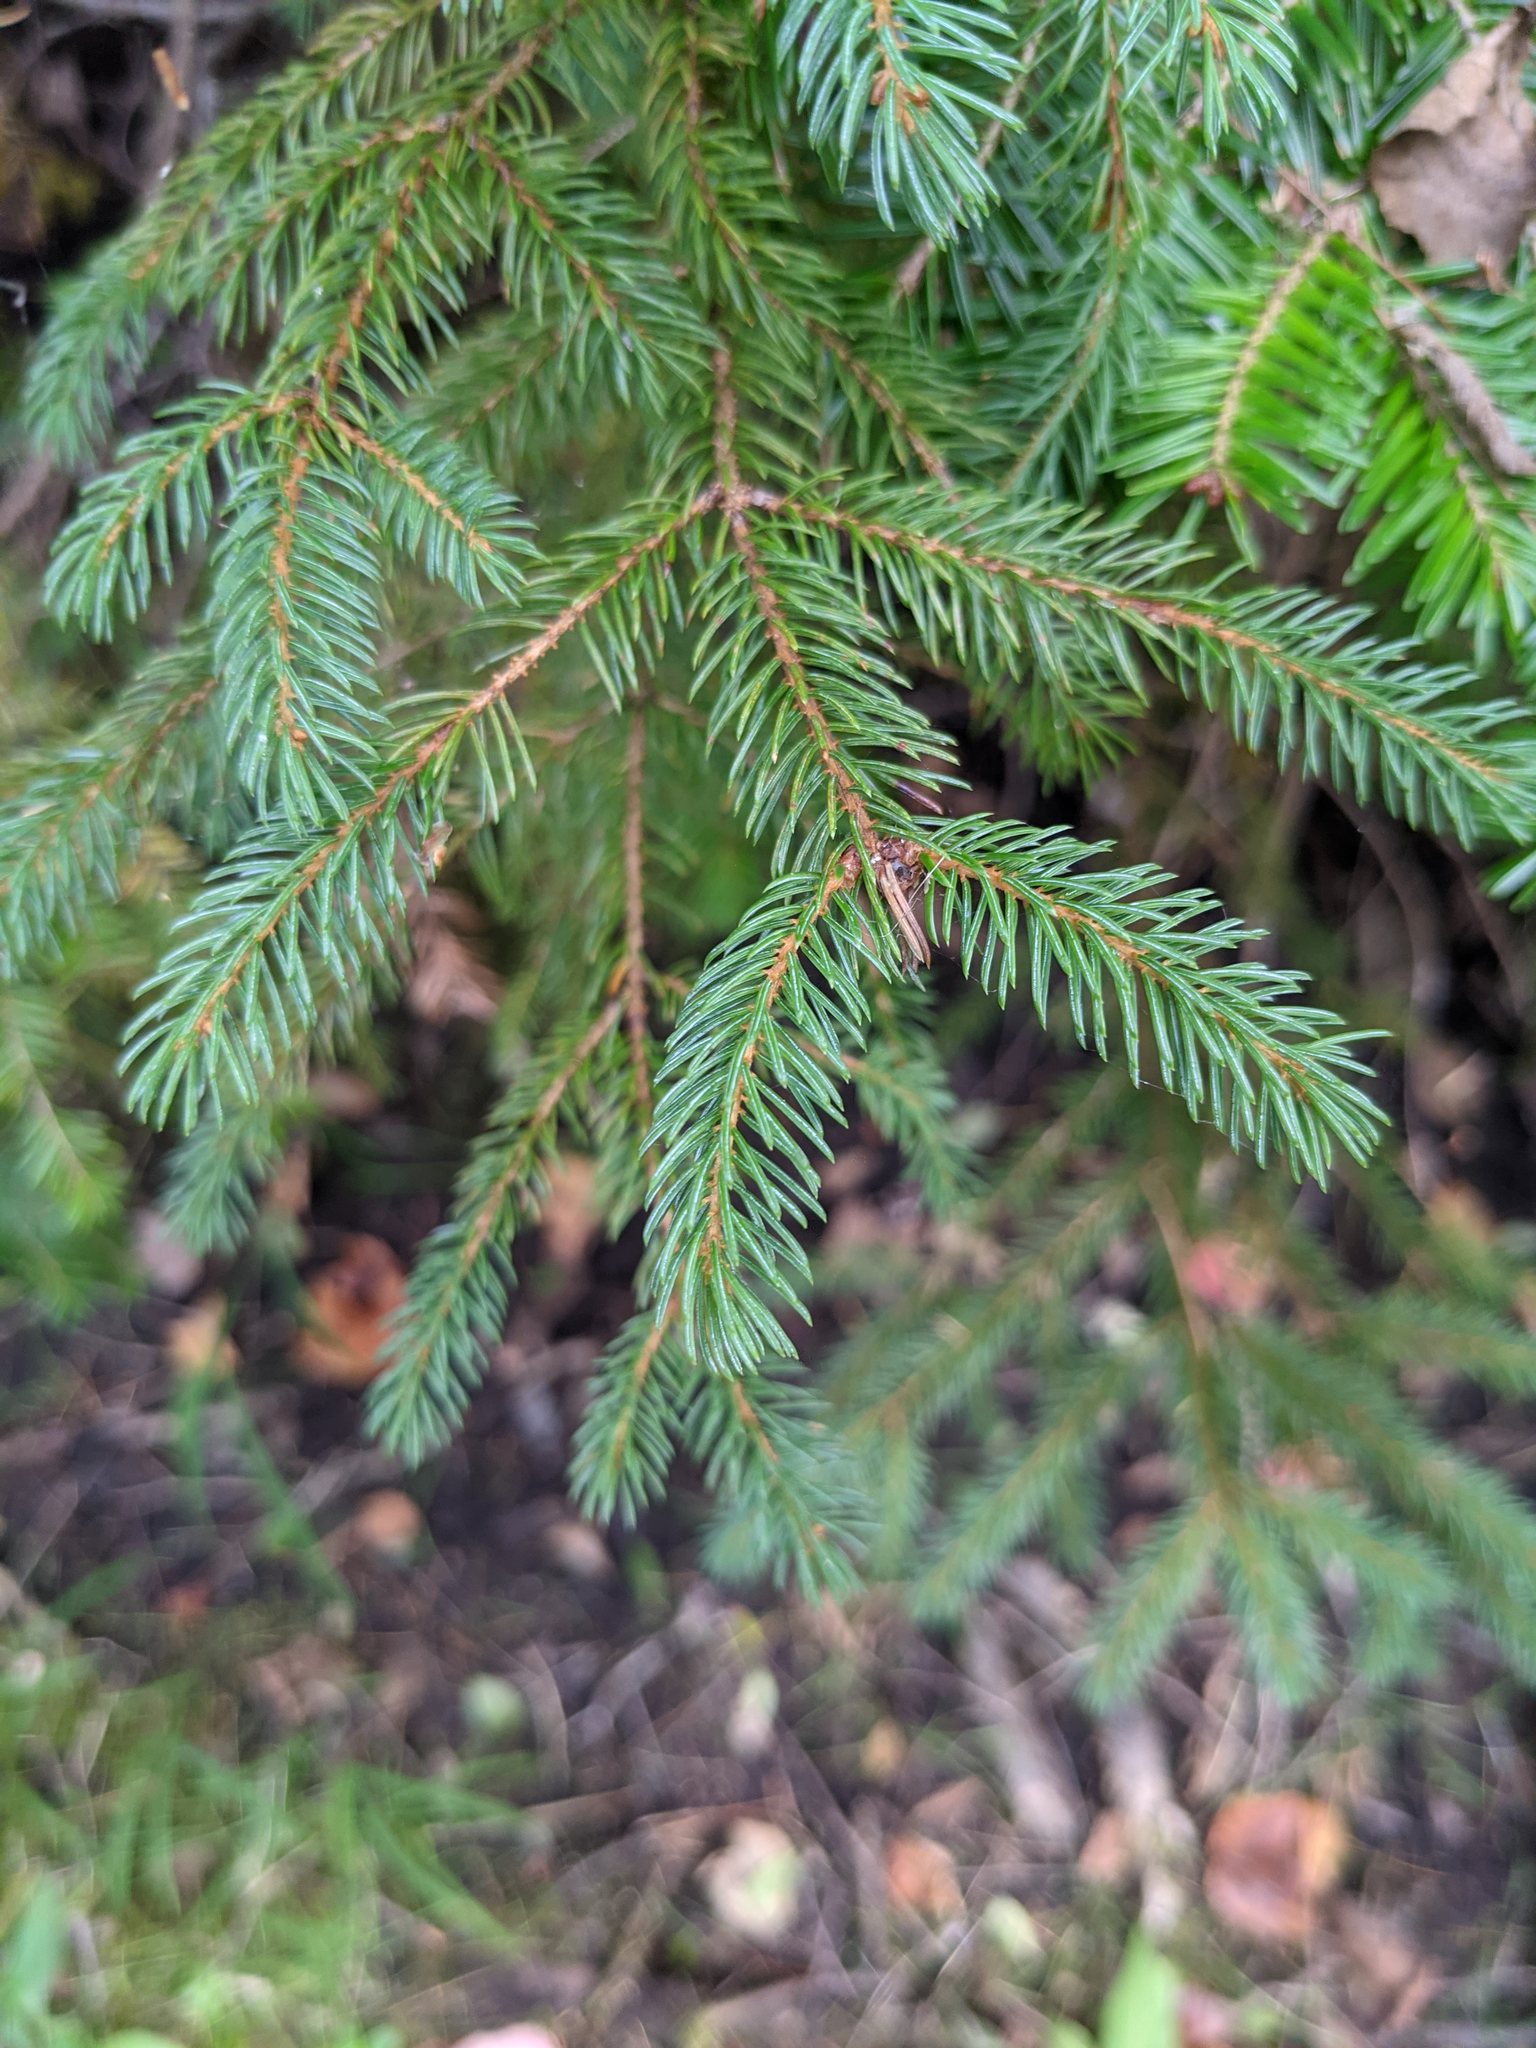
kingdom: Plantae
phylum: Tracheophyta
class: Pinopsida
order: Pinales
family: Pinaceae
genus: Picea
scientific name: Picea rubens
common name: Red spruce
